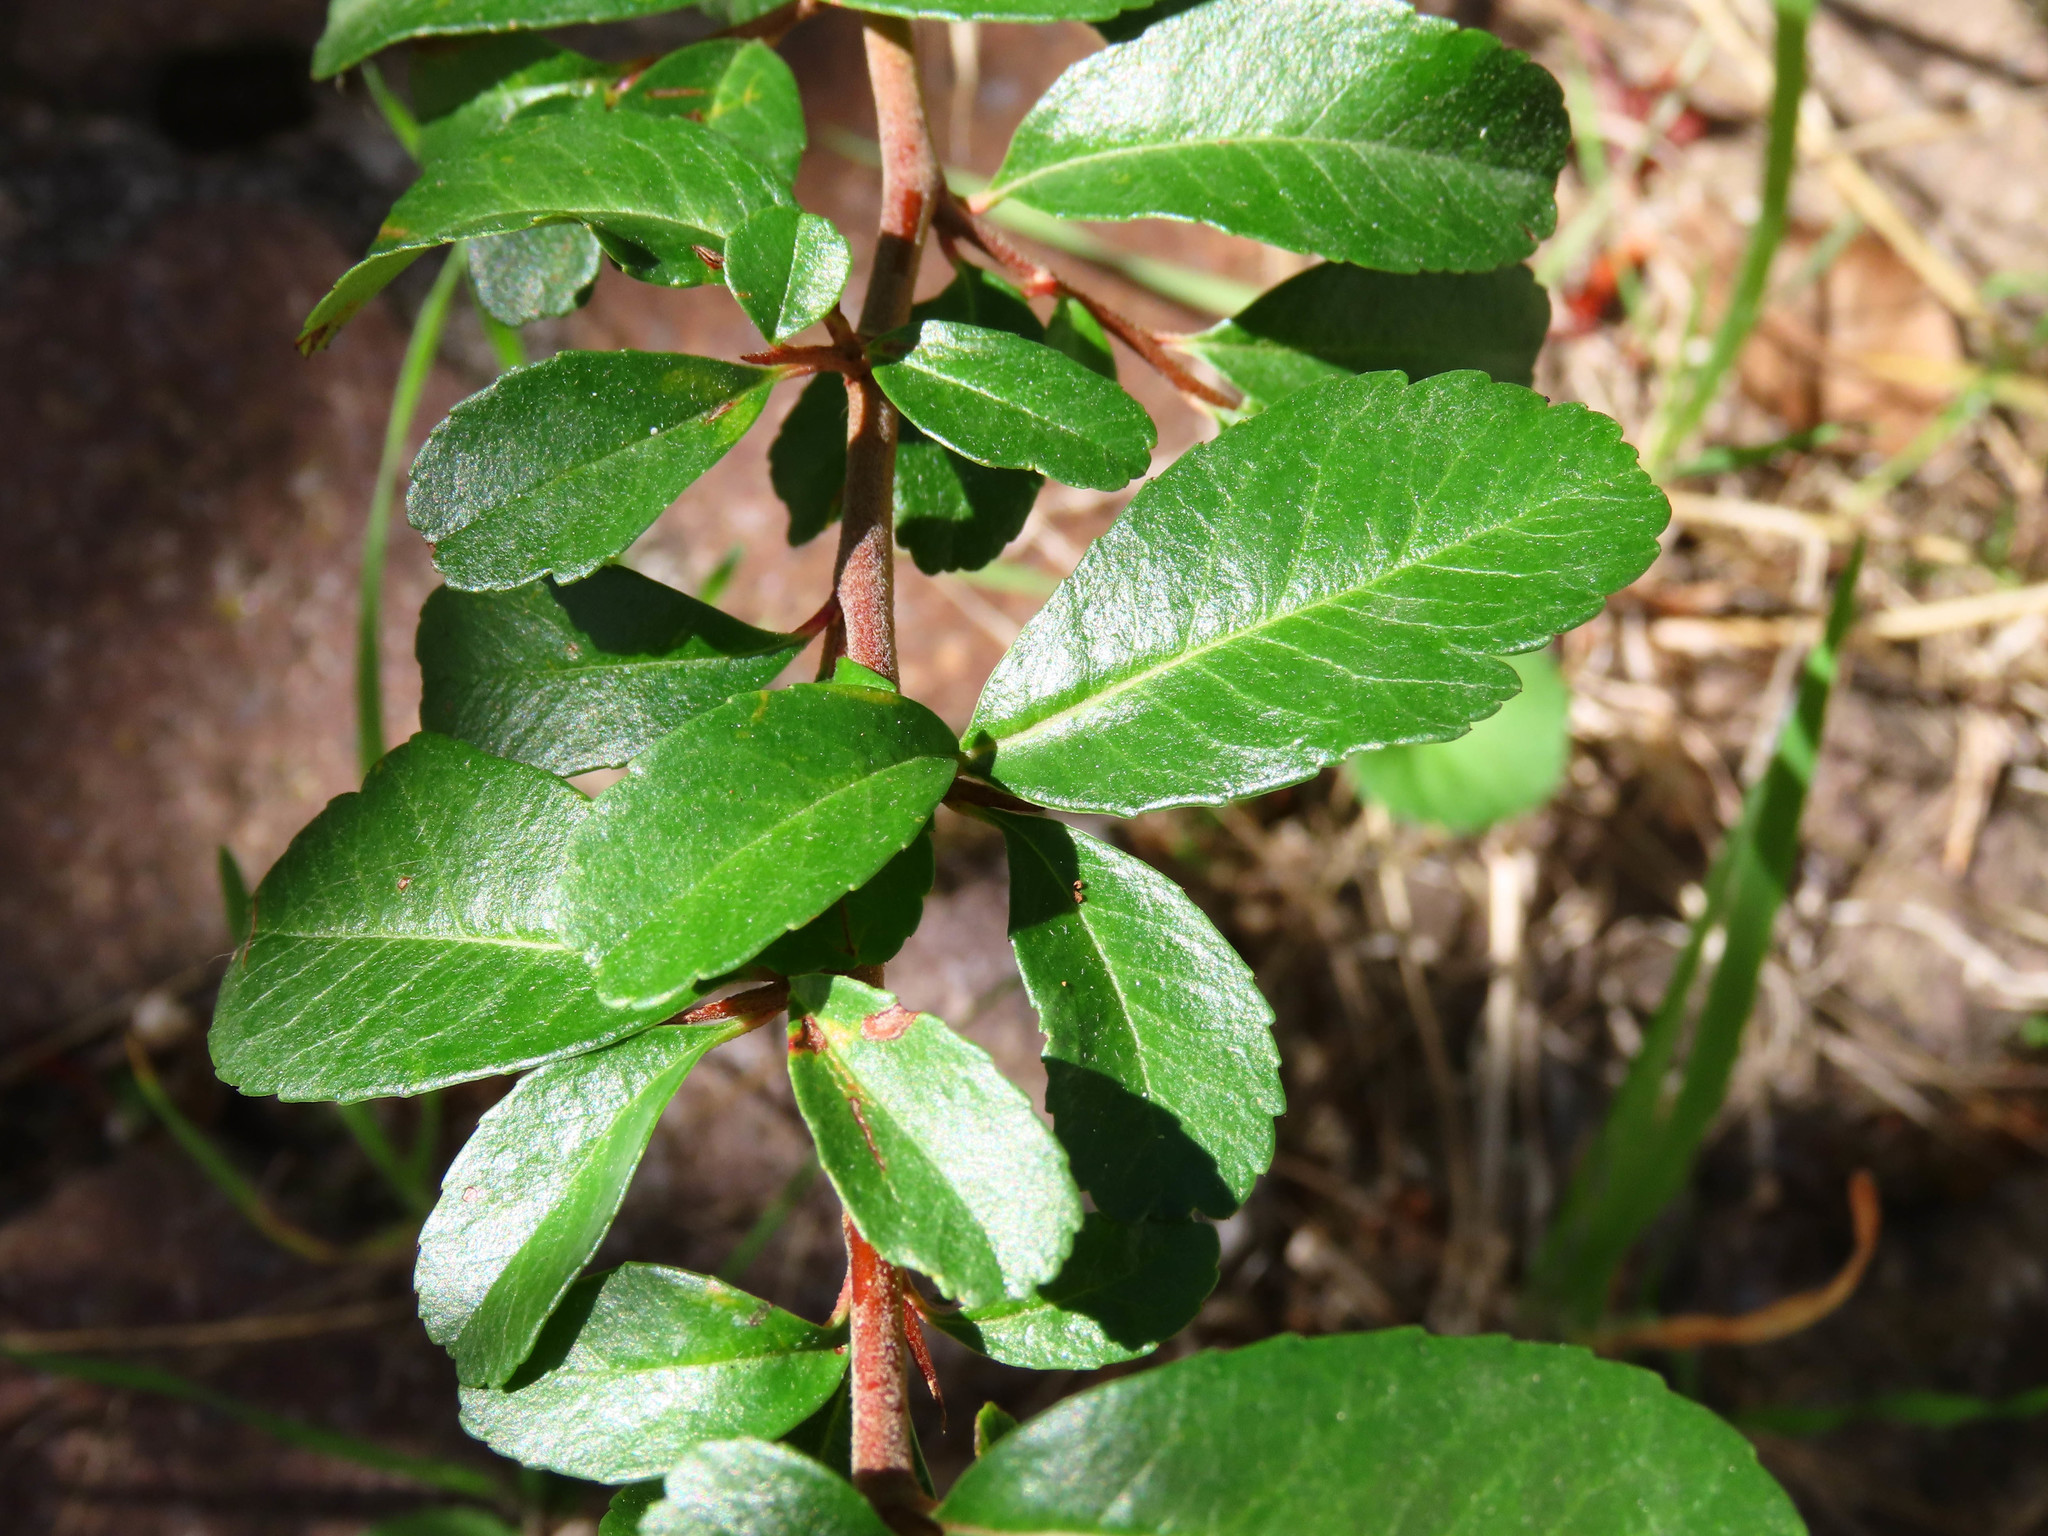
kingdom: Plantae
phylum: Tracheophyta
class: Magnoliopsida
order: Rosales
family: Rosaceae
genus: Pyracantha
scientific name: Pyracantha crenulata
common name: Nepalese firethorn
